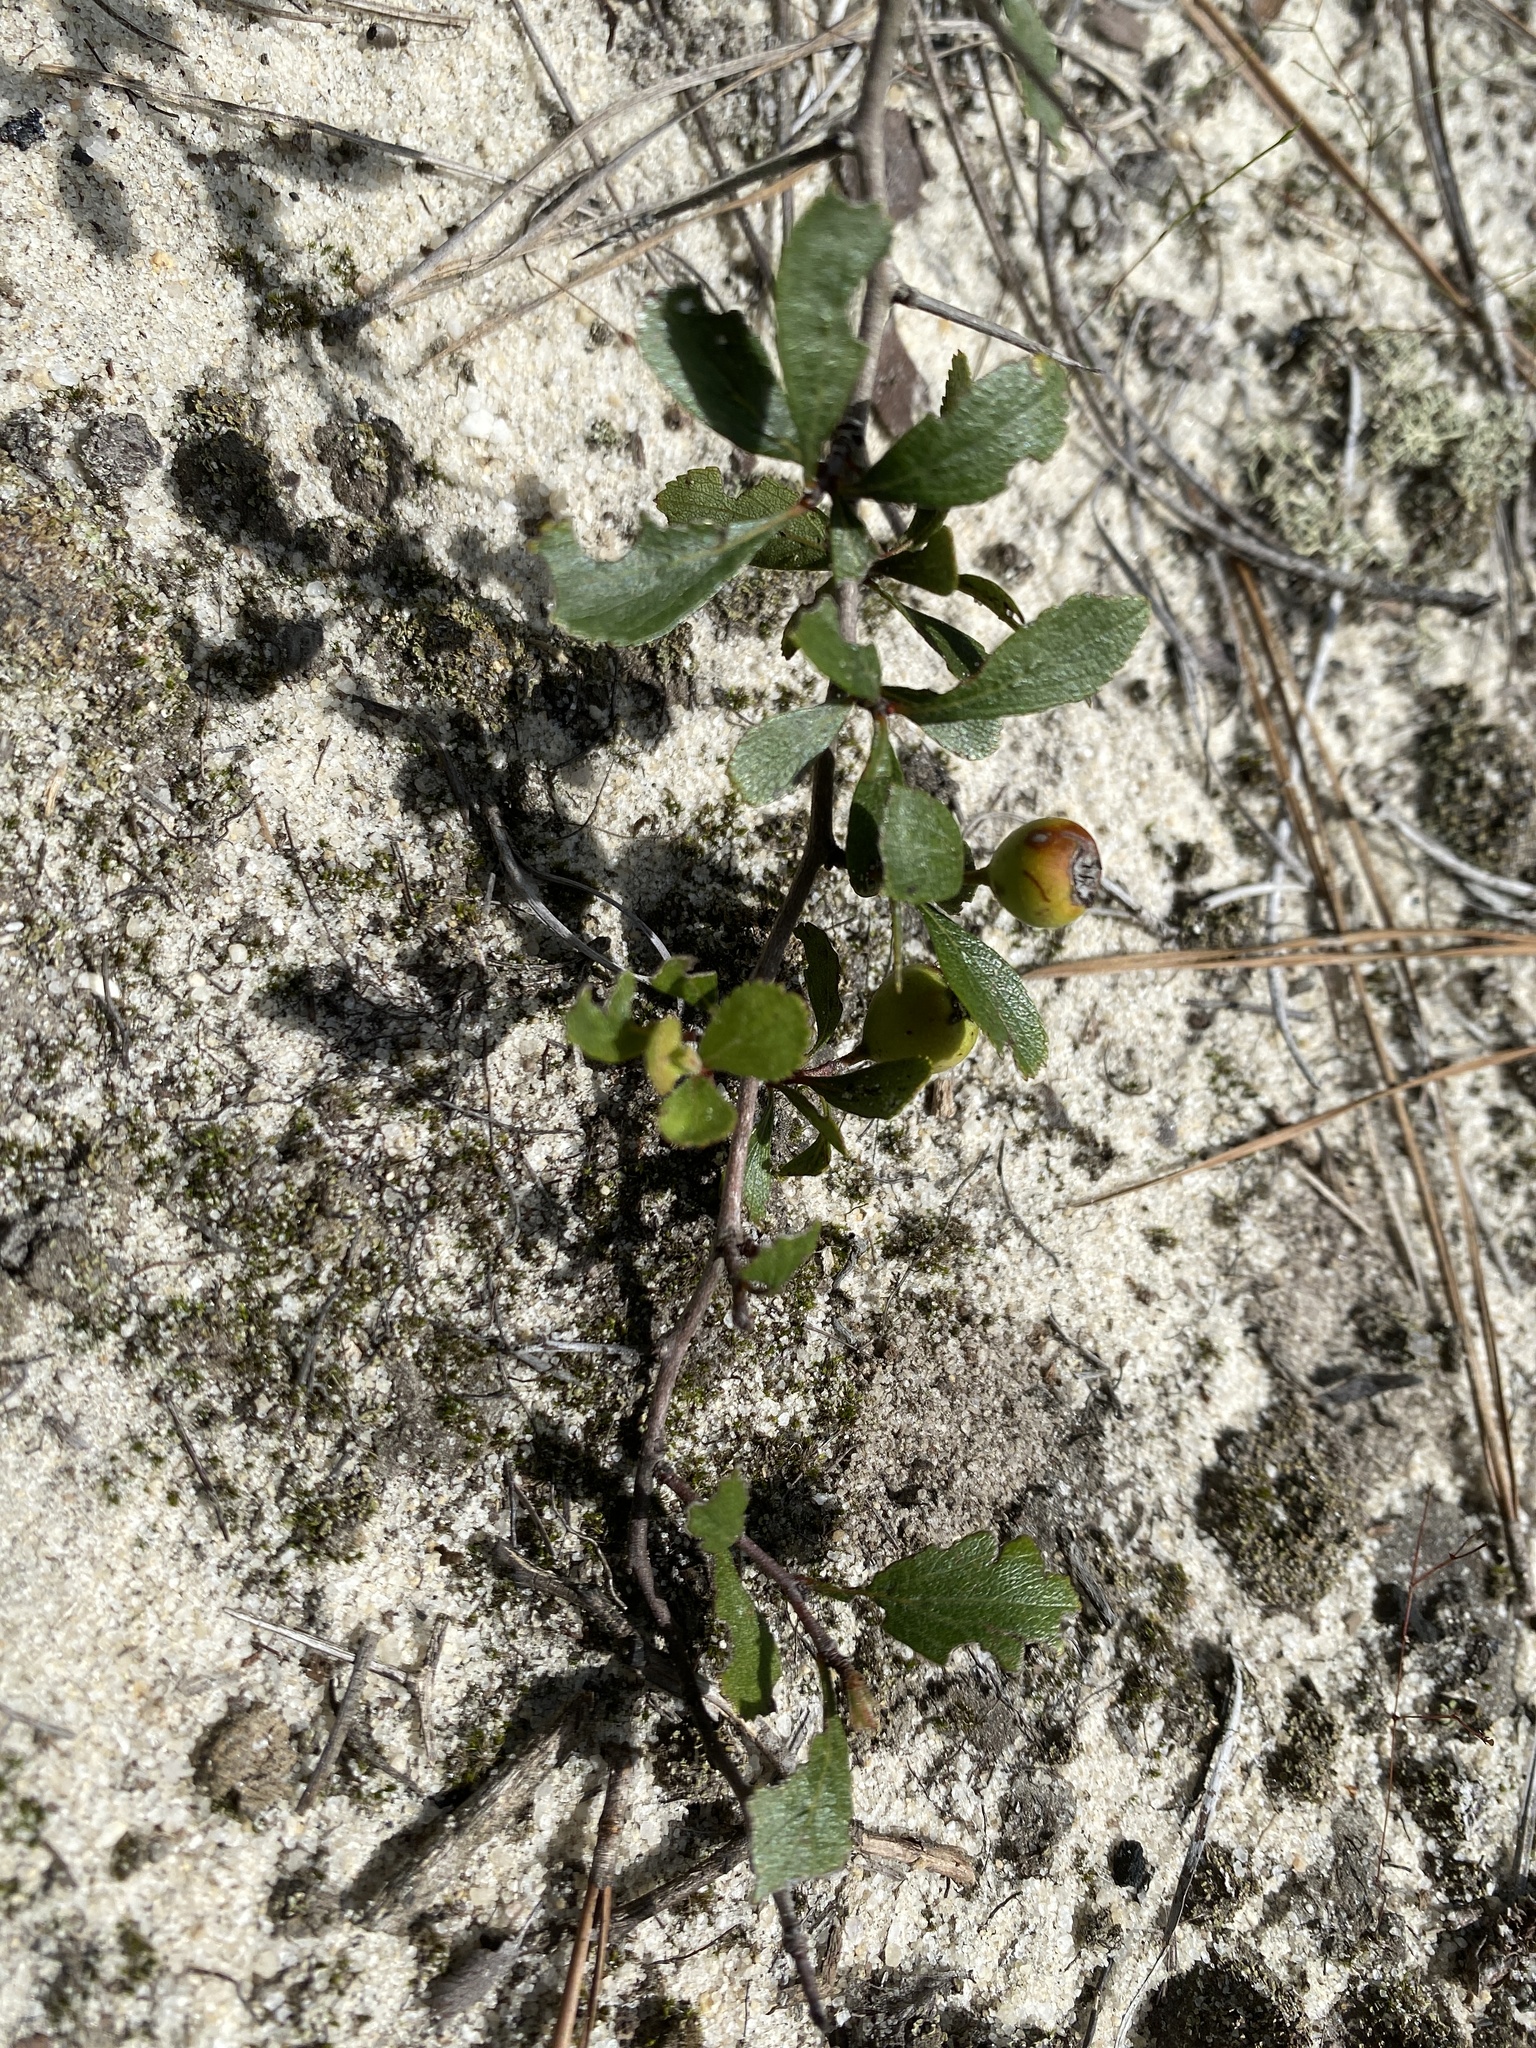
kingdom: Plantae
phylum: Tracheophyta
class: Magnoliopsida
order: Rosales
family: Rosaceae
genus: Crataegus
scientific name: Crataegus munda
